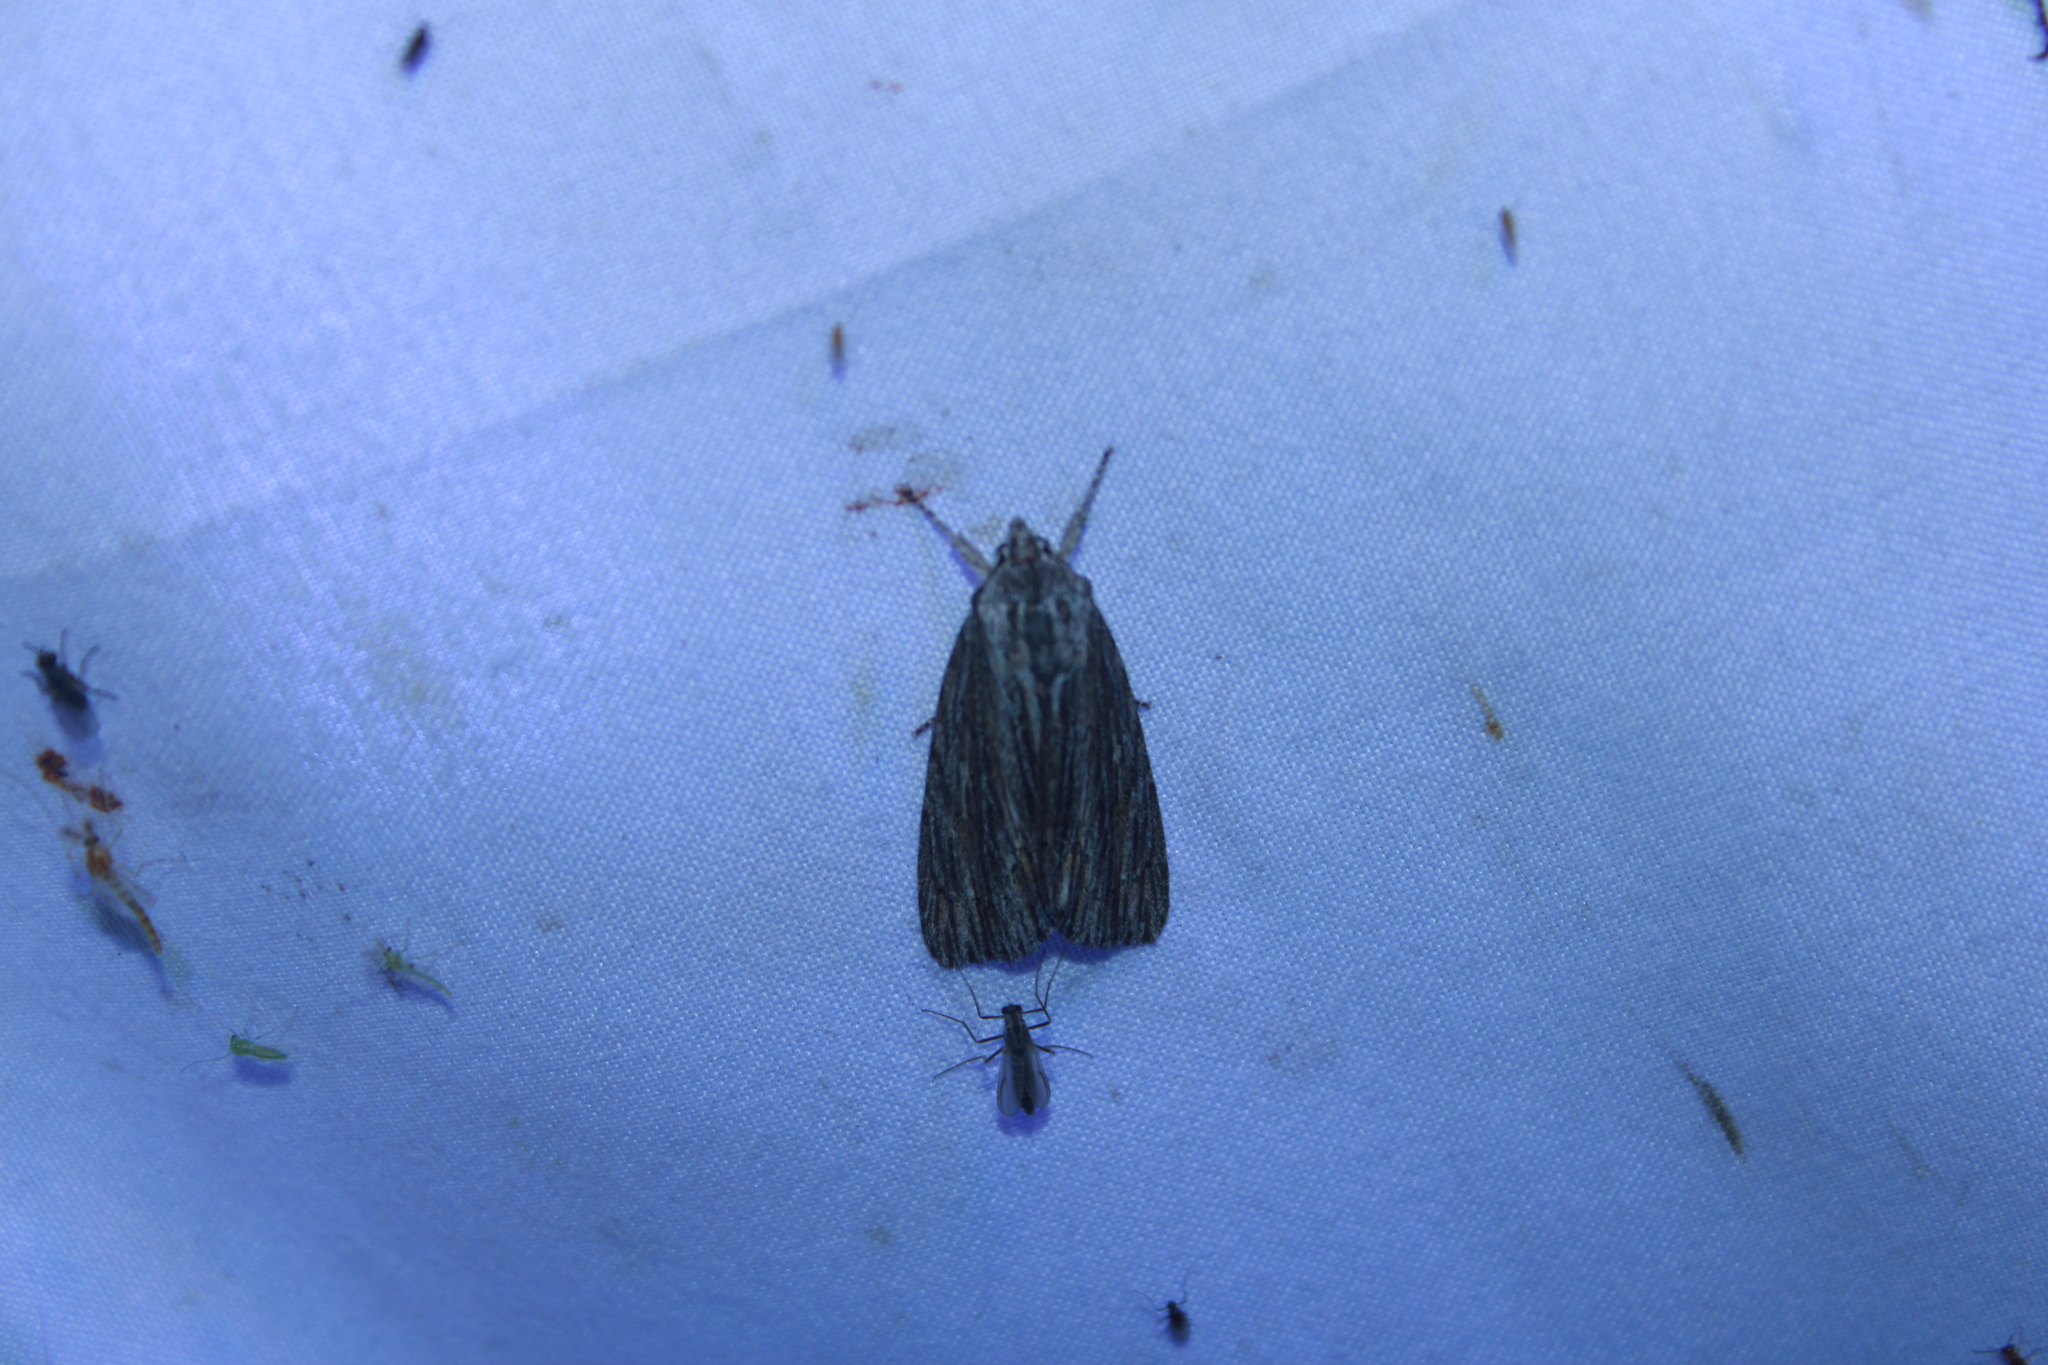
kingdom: Animalia
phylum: Arthropoda
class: Insecta
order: Lepidoptera
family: Noctuidae
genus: Acronicta
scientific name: Acronicta lithospila
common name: Streaked dagger
